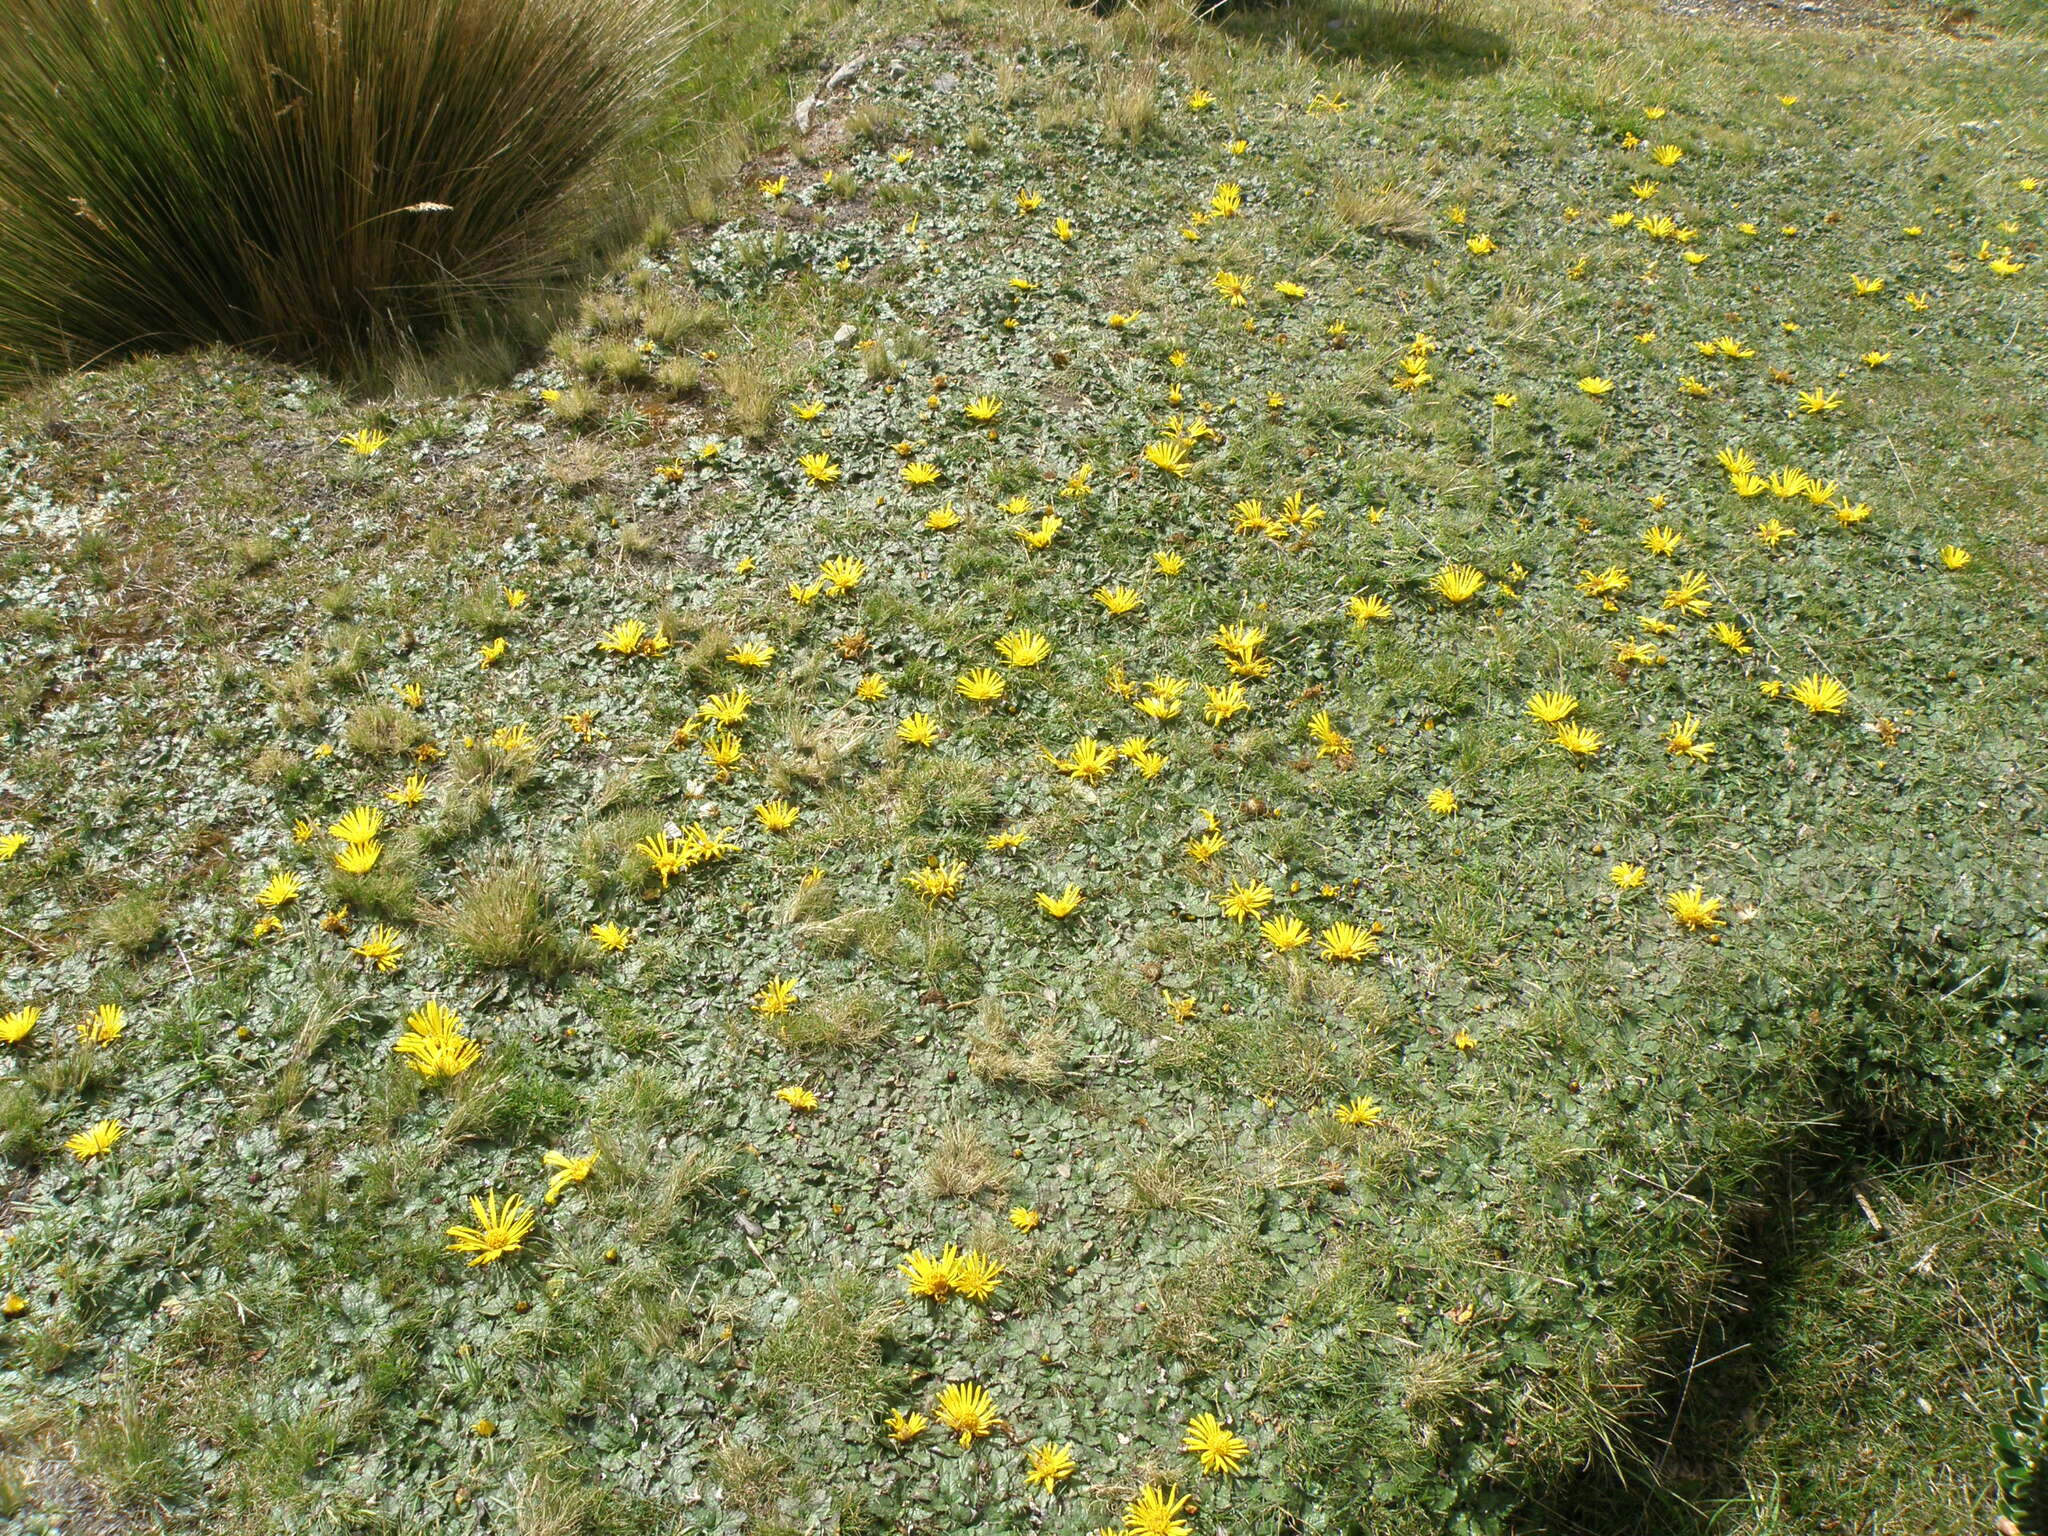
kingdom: Plantae
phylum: Tracheophyta
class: Magnoliopsida
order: Asterales
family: Asteraceae
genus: Paranephelius
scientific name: Paranephelius ovatus
